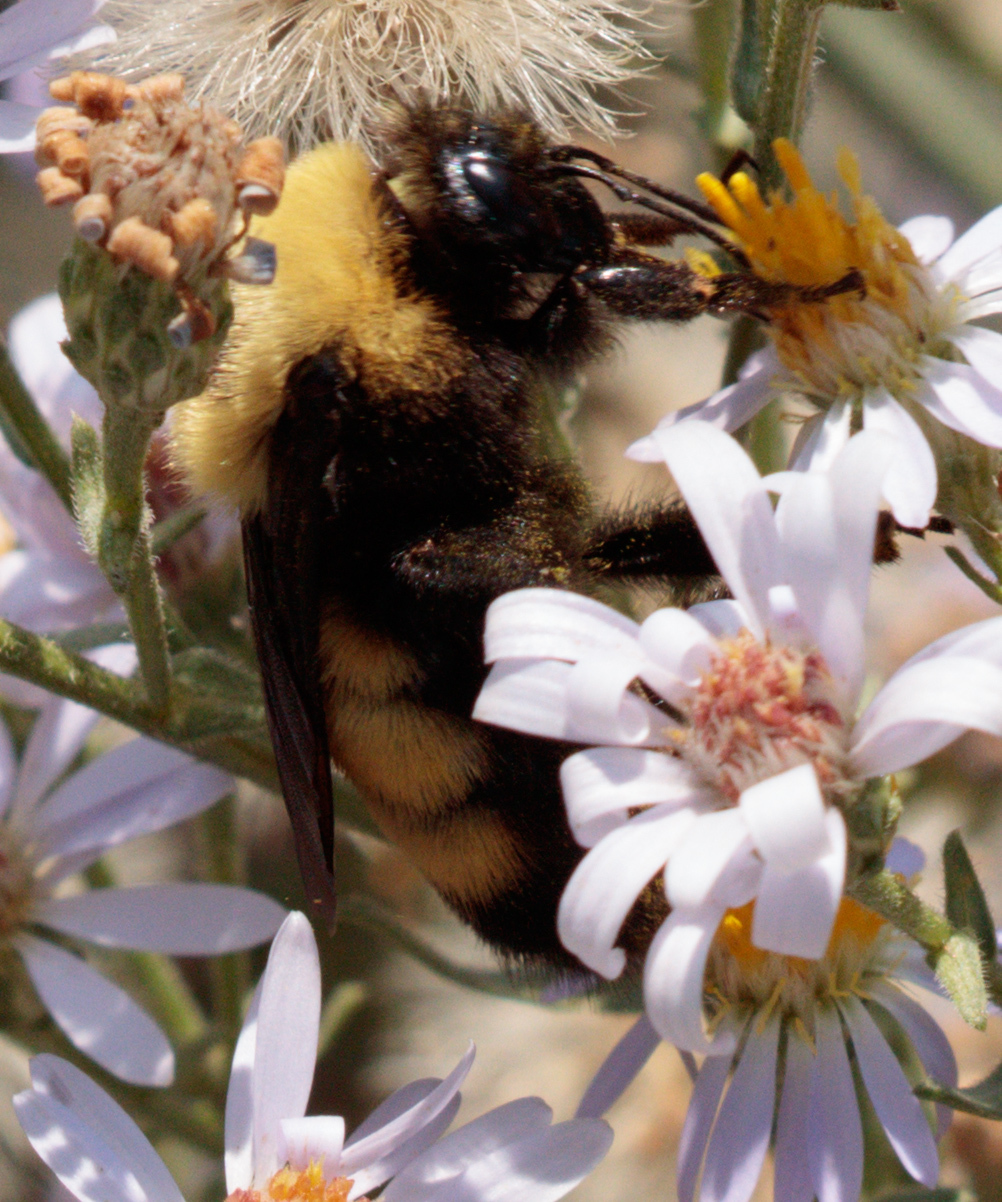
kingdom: Animalia
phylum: Arthropoda
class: Insecta
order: Hymenoptera
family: Apidae
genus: Bombus
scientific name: Bombus nevadensis
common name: Nevada bumble bee
